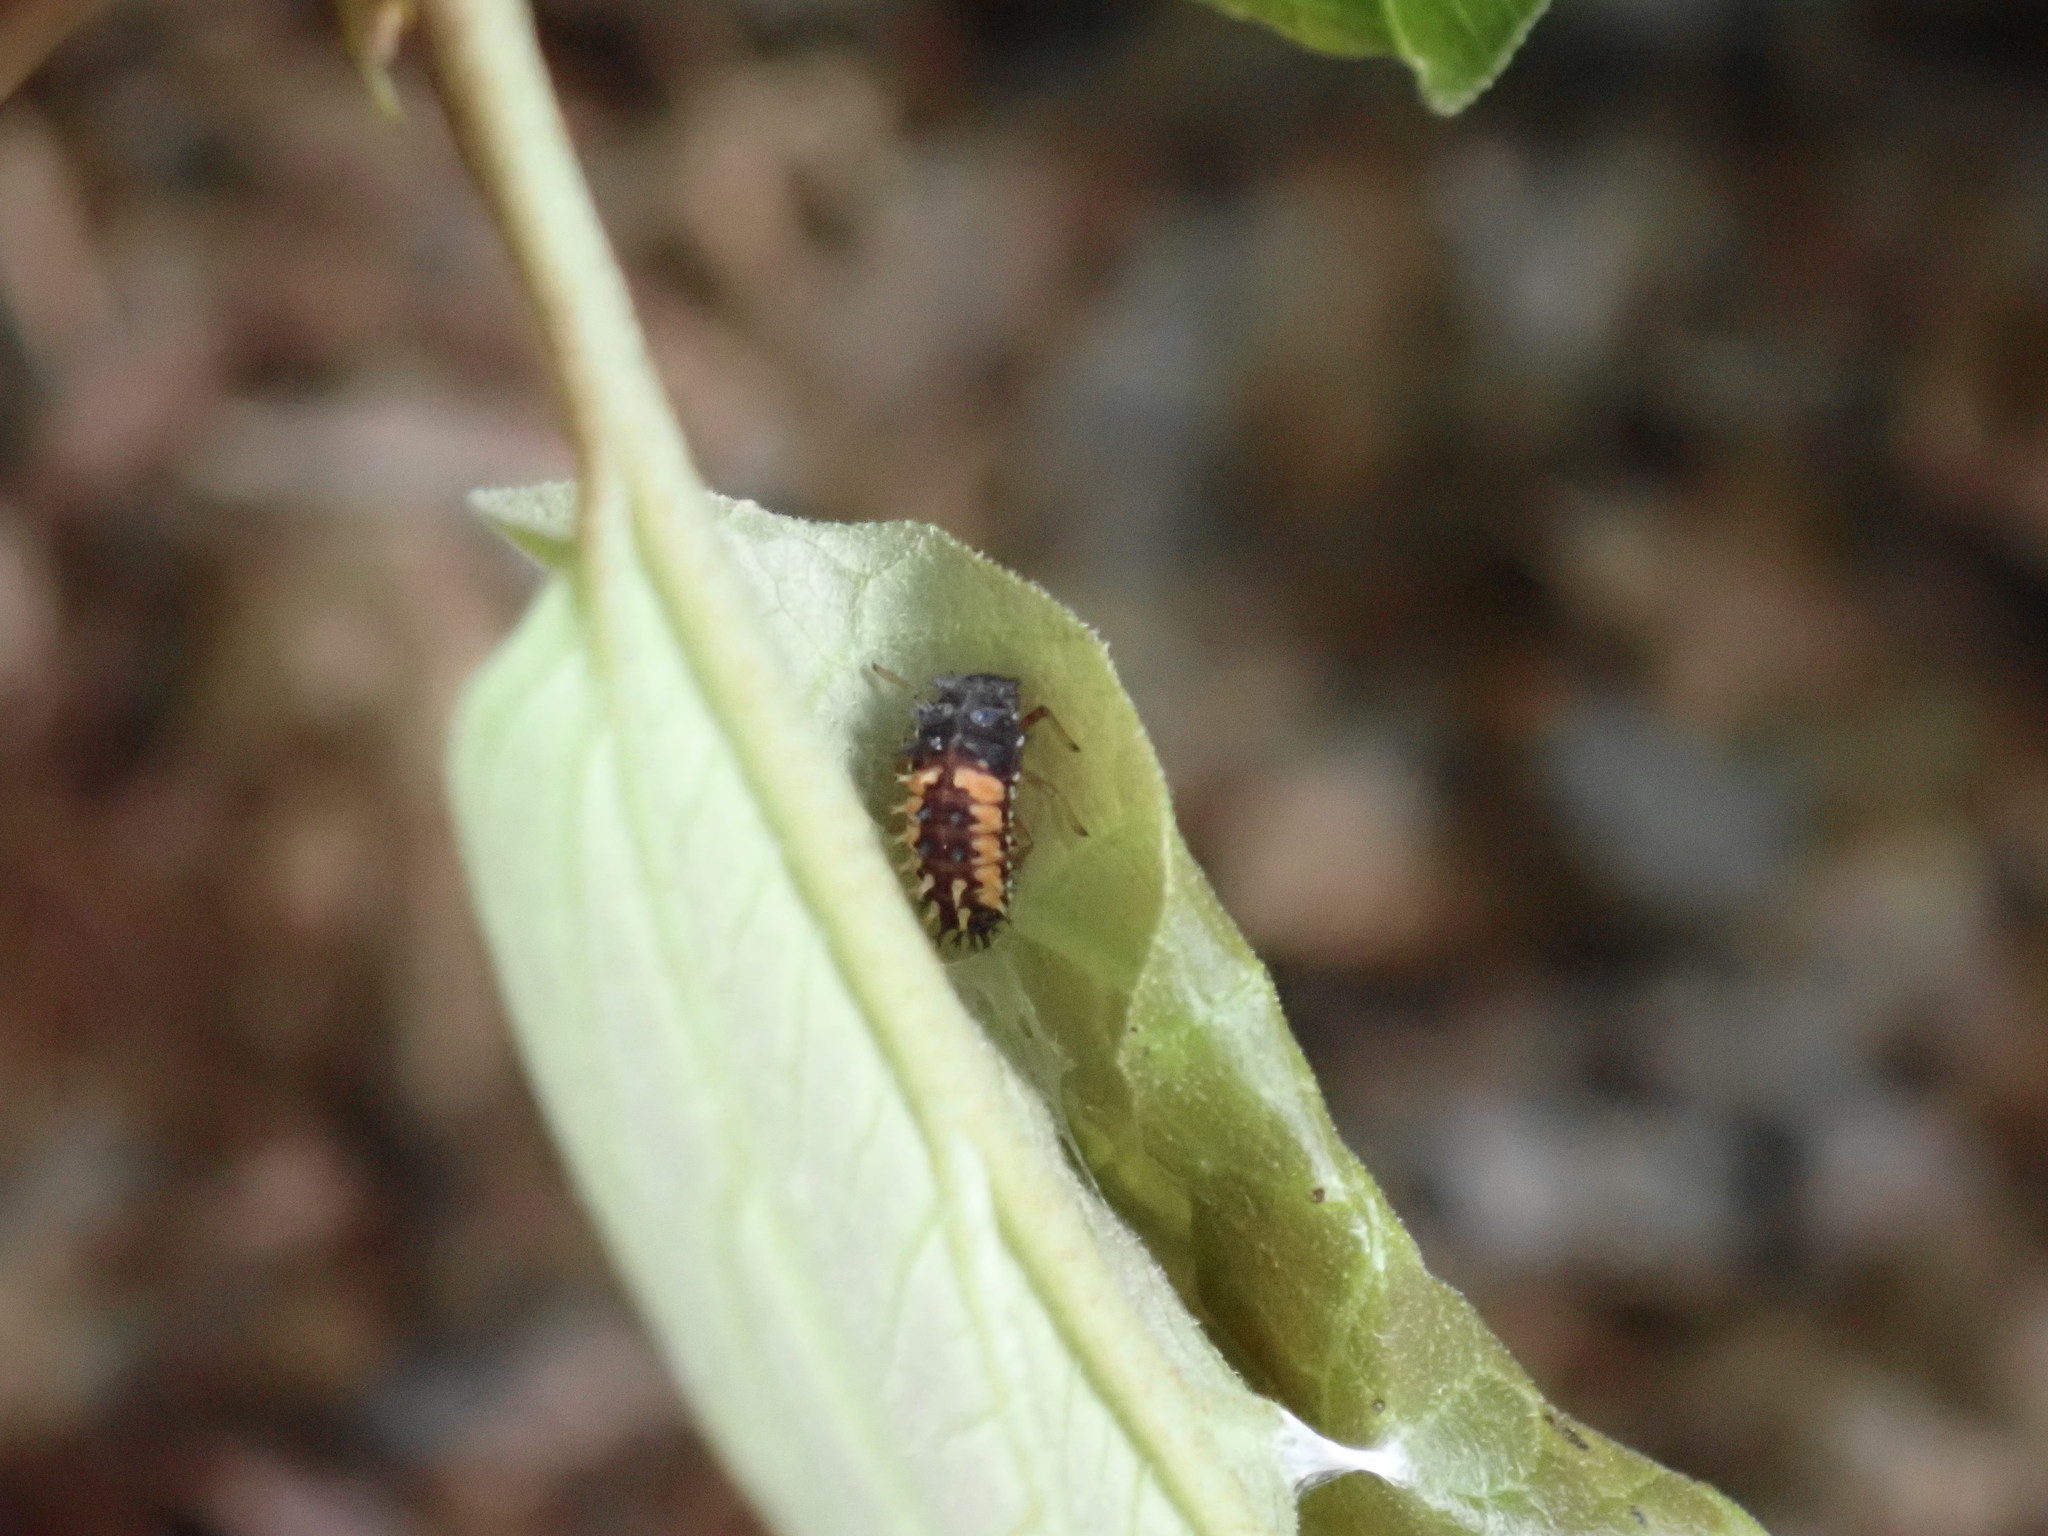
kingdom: Animalia
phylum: Arthropoda
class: Insecta
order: Coleoptera
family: Coccinellidae
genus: Harmonia
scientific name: Harmonia axyridis
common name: Harlequin ladybird
